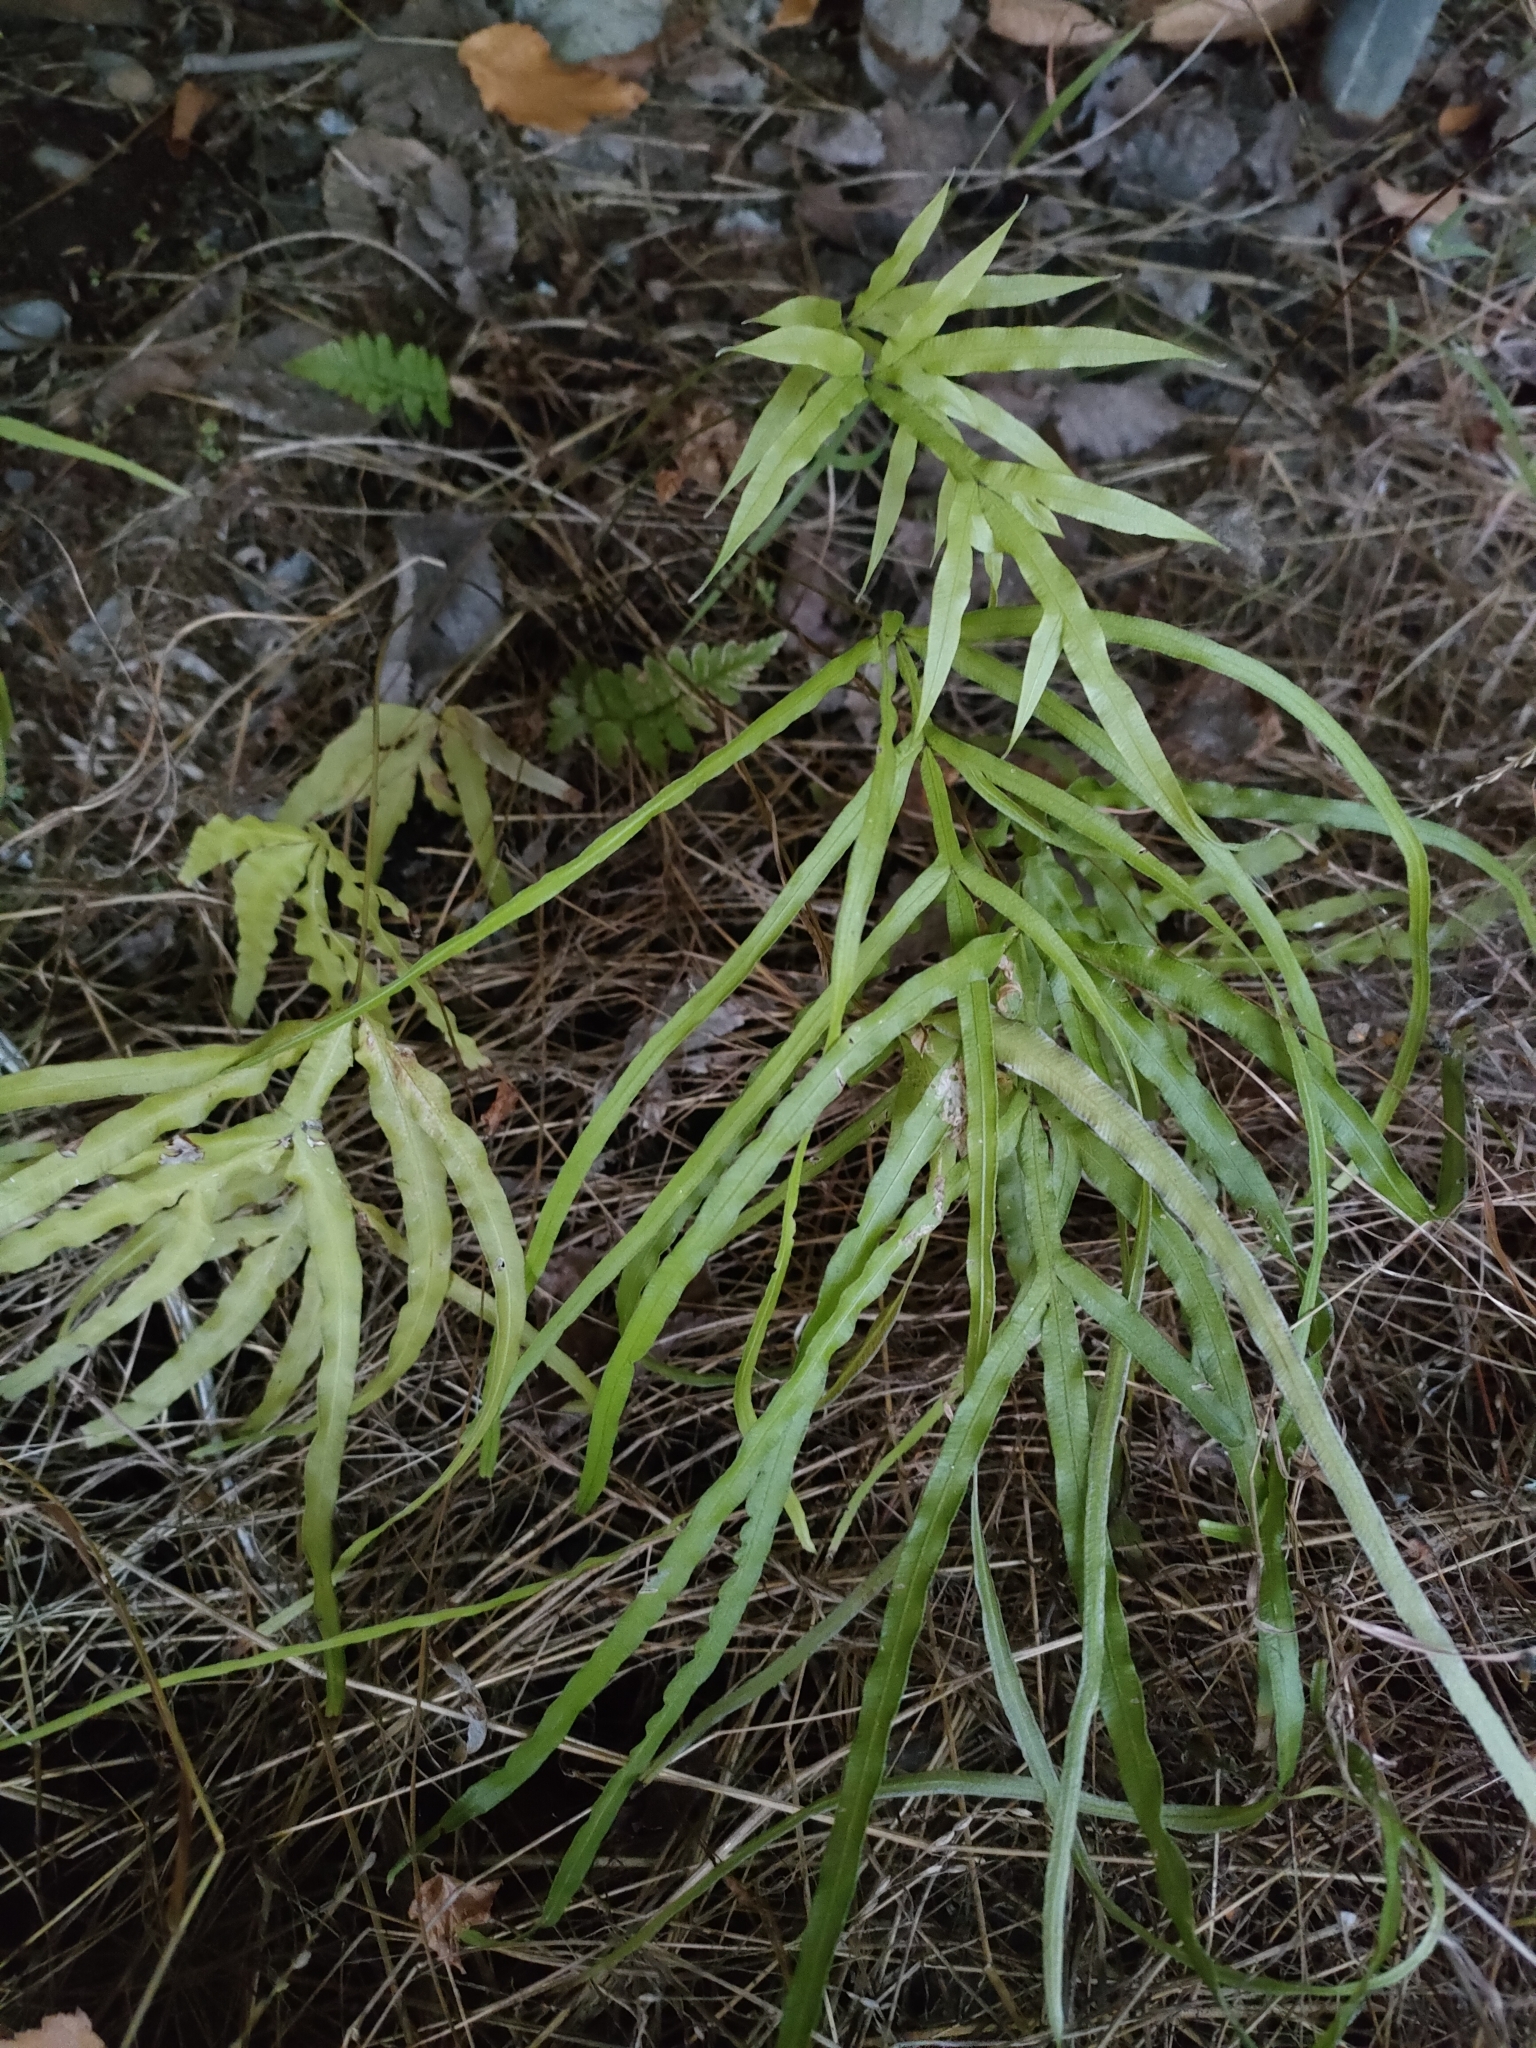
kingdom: Plantae
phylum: Tracheophyta
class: Polypodiopsida
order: Polypodiales
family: Pteridaceae
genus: Pteris
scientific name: Pteris multifida
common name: Spider brake
